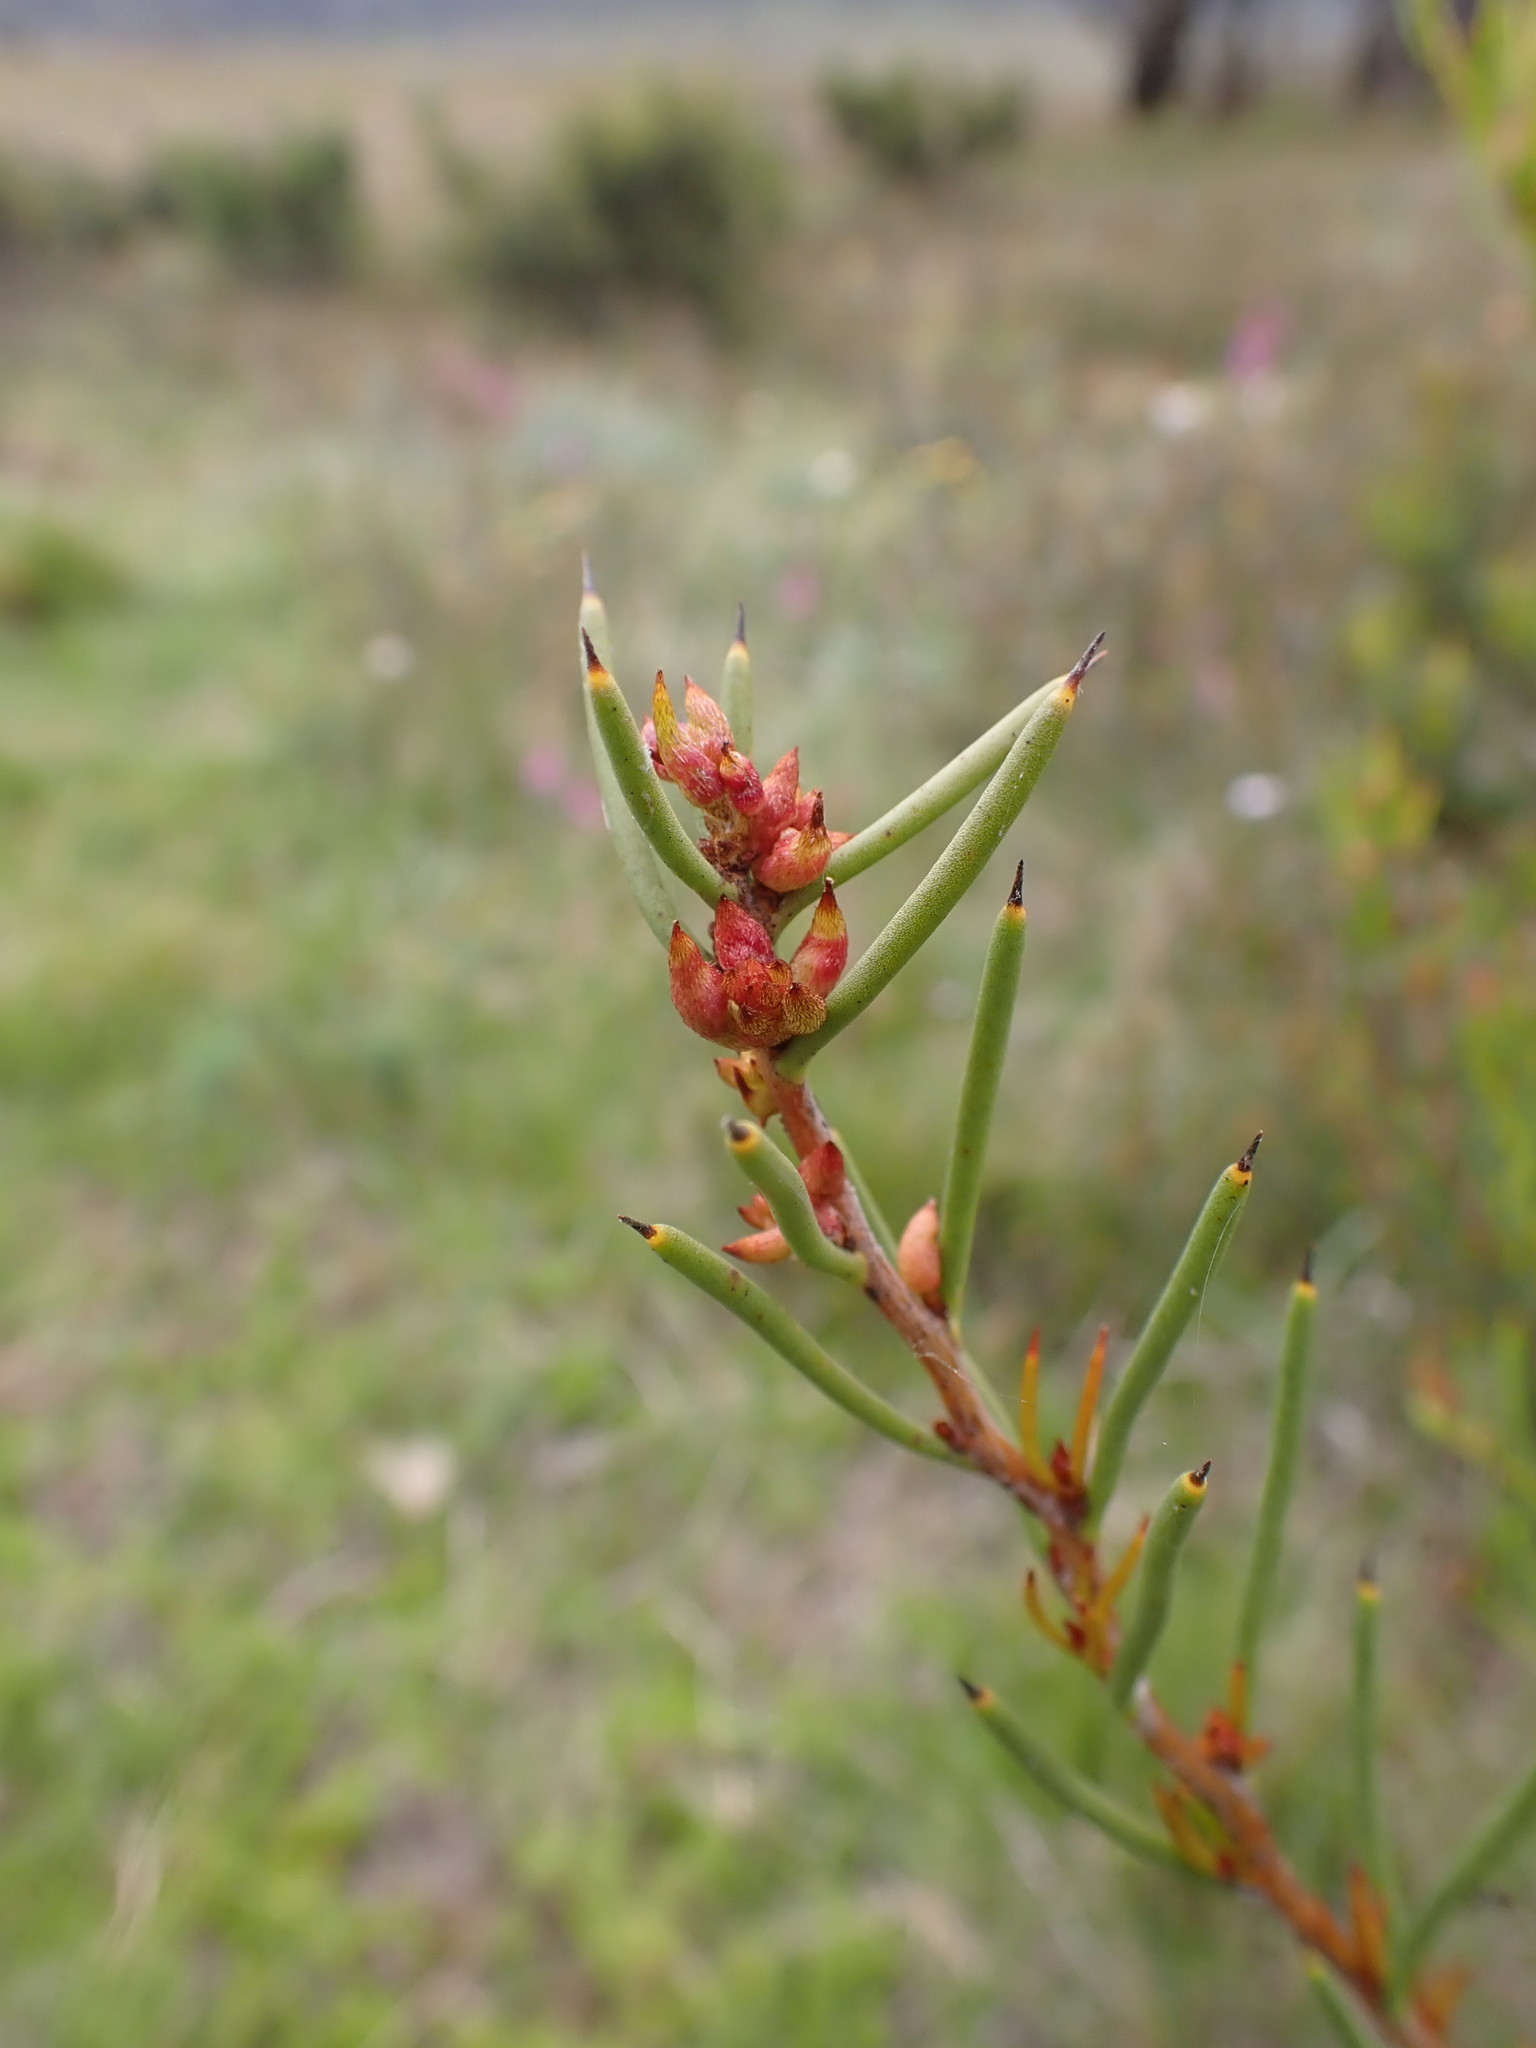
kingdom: Plantae
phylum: Tracheophyta
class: Magnoliopsida
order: Proteales
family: Proteaceae
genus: Hakea
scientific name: Hakea microcarpa
